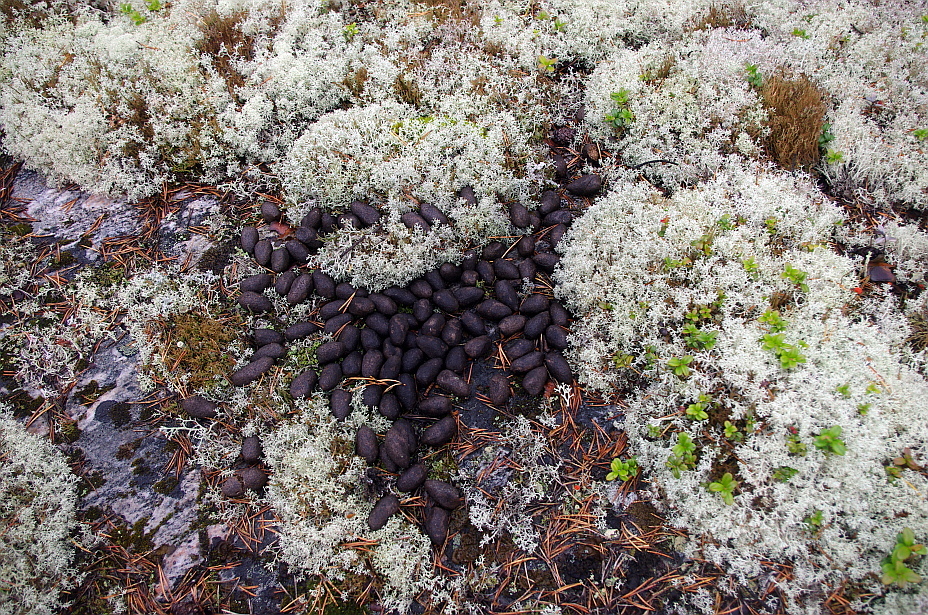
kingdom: Animalia
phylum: Chordata
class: Mammalia
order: Artiodactyla
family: Cervidae
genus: Alces
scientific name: Alces alces
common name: Moose
